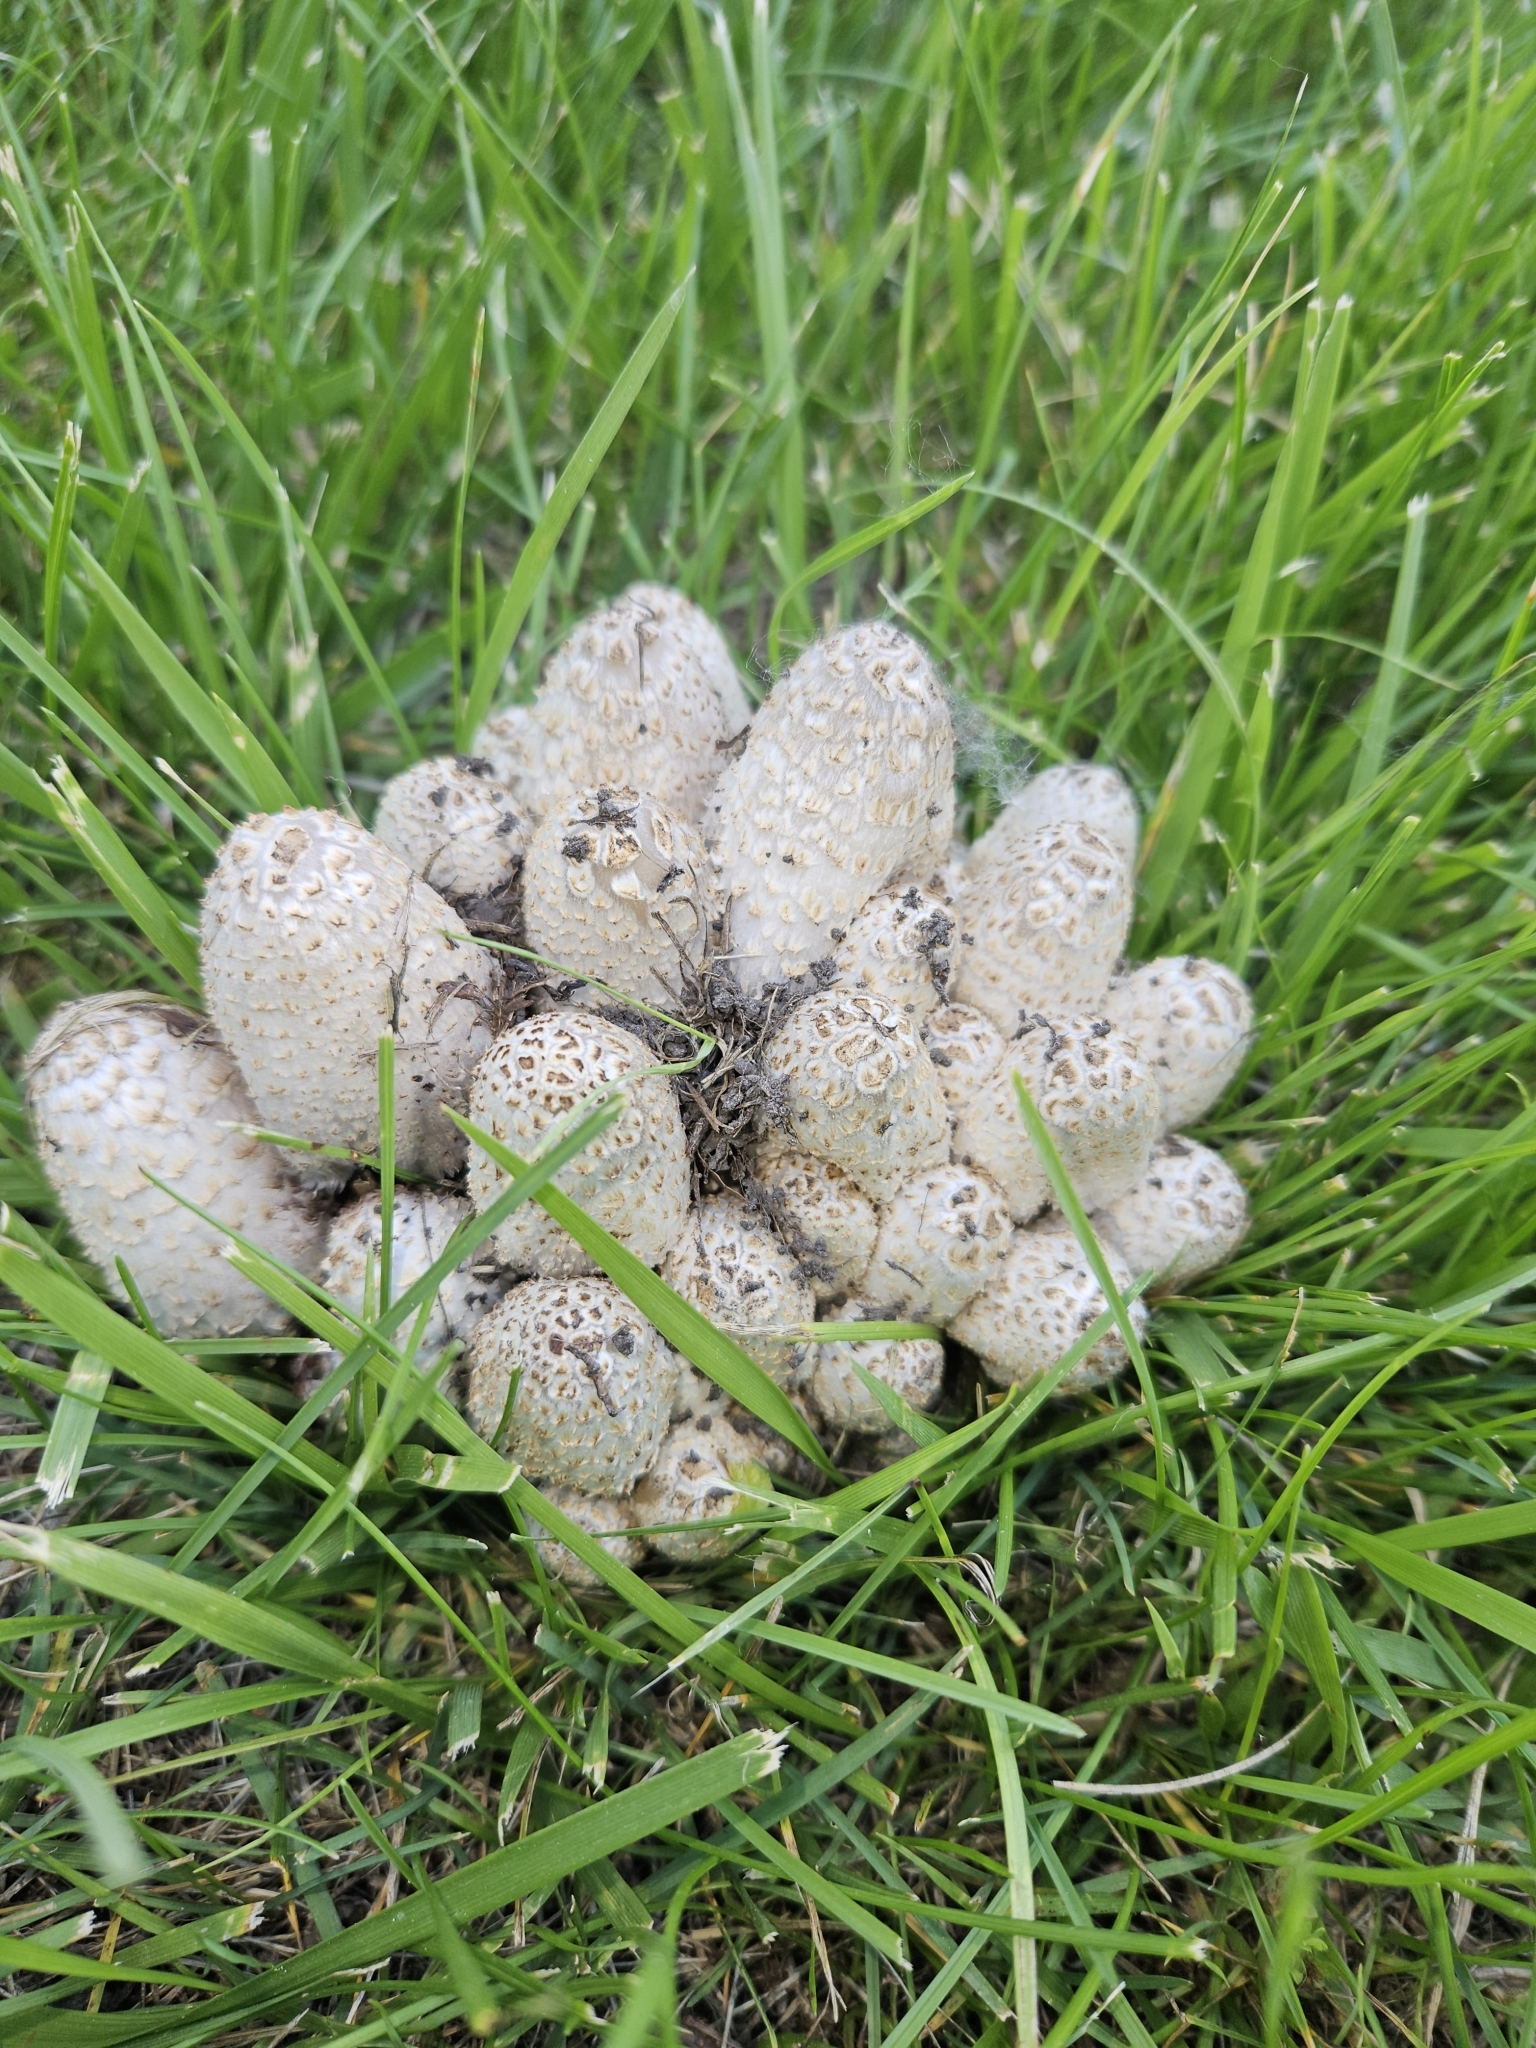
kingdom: Fungi
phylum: Basidiomycota
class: Agaricomycetes
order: Agaricales
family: Psathyrellaceae
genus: Coprinopsis
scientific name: Coprinopsis variegata
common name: Scaly ink cap
